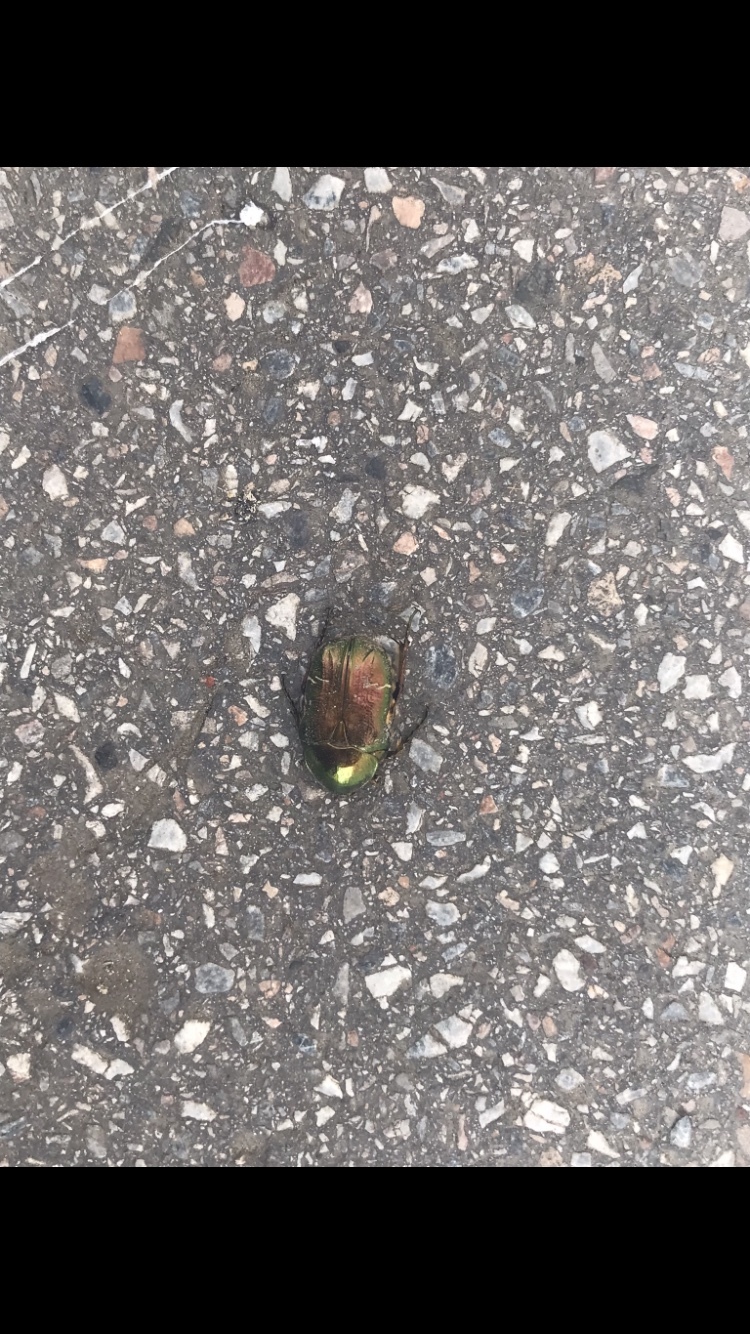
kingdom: Animalia
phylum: Arthropoda
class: Insecta
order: Coleoptera
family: Scarabaeidae
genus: Cetonia
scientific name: Cetonia aurata
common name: Rose chafer
